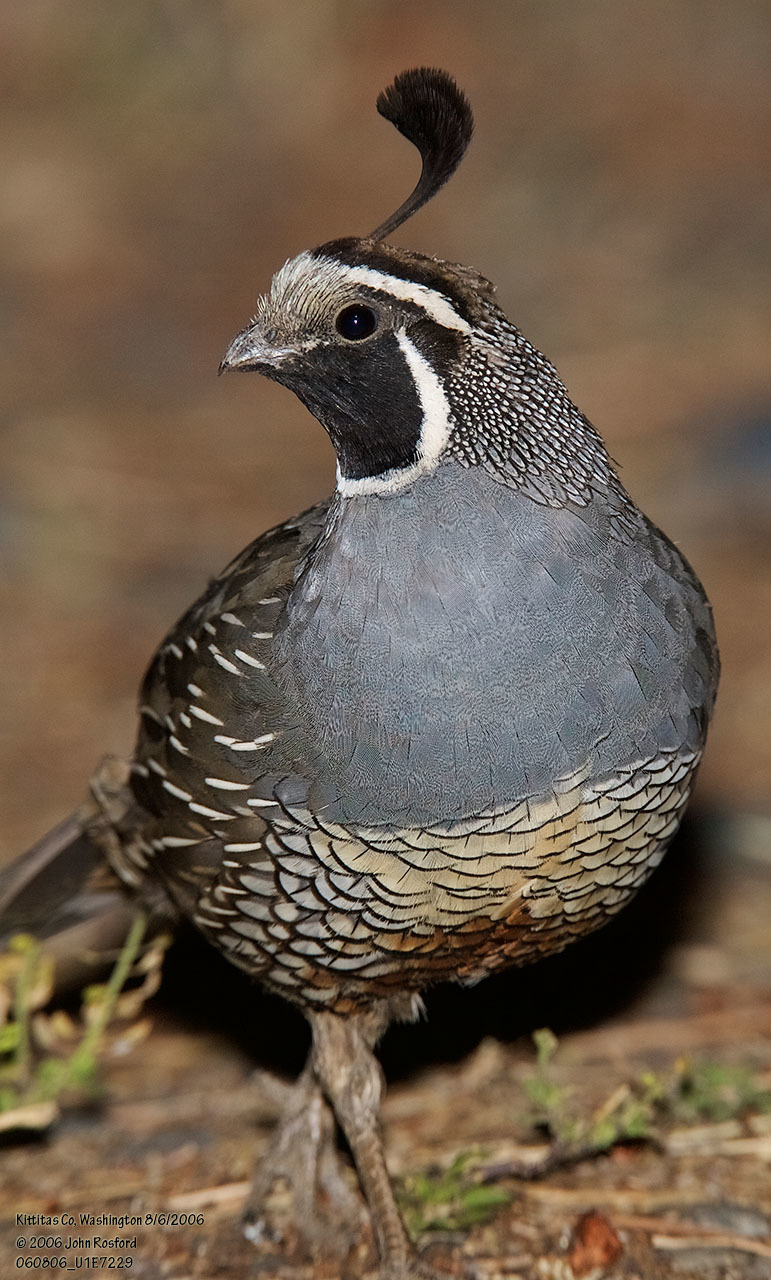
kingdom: Animalia
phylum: Chordata
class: Aves
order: Galliformes
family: Odontophoridae
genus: Callipepla
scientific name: Callipepla californica
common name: California quail
